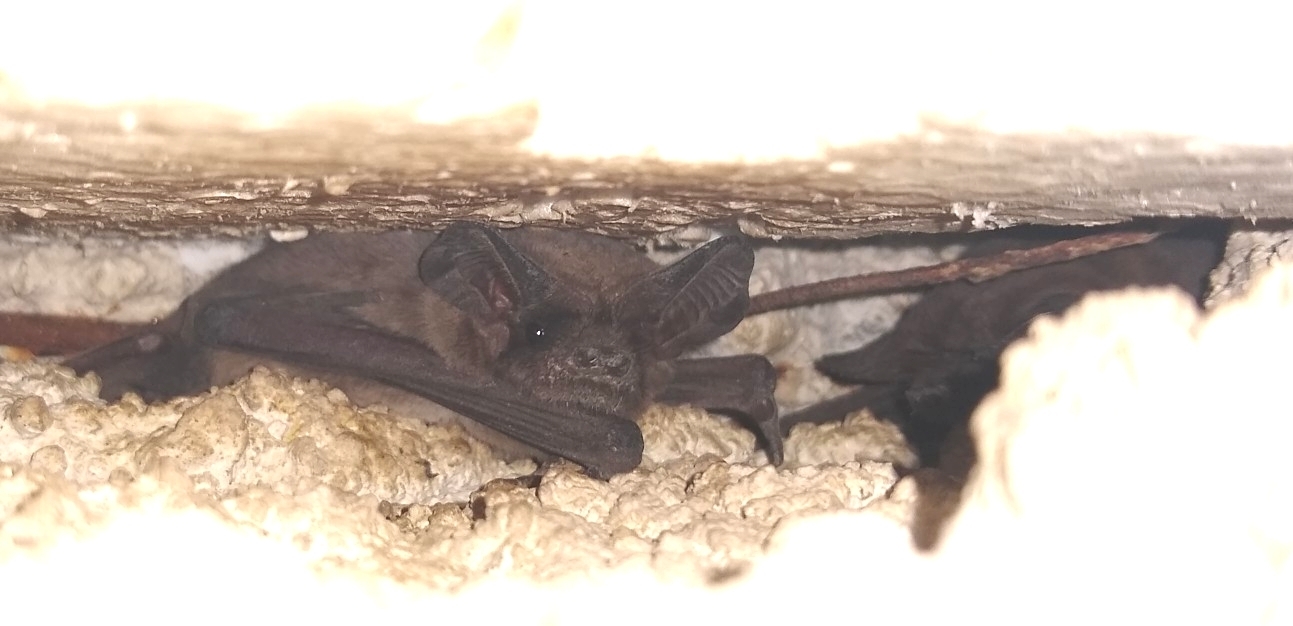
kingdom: Animalia
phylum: Chordata
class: Mammalia
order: Chiroptera
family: Molossidae
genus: Tadarida
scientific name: Tadarida brasiliensis
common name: Mexican free-tailed bat
